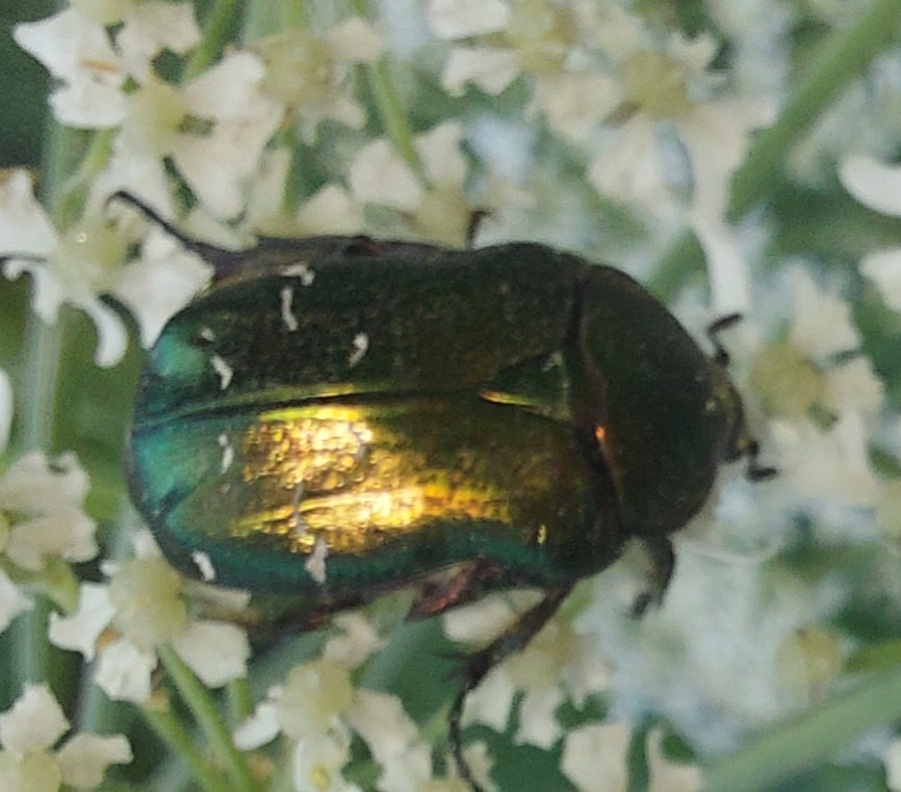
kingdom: Animalia
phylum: Arthropoda
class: Insecta
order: Coleoptera
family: Scarabaeidae
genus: Cetonia
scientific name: Cetonia aurata
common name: Rose chafer
